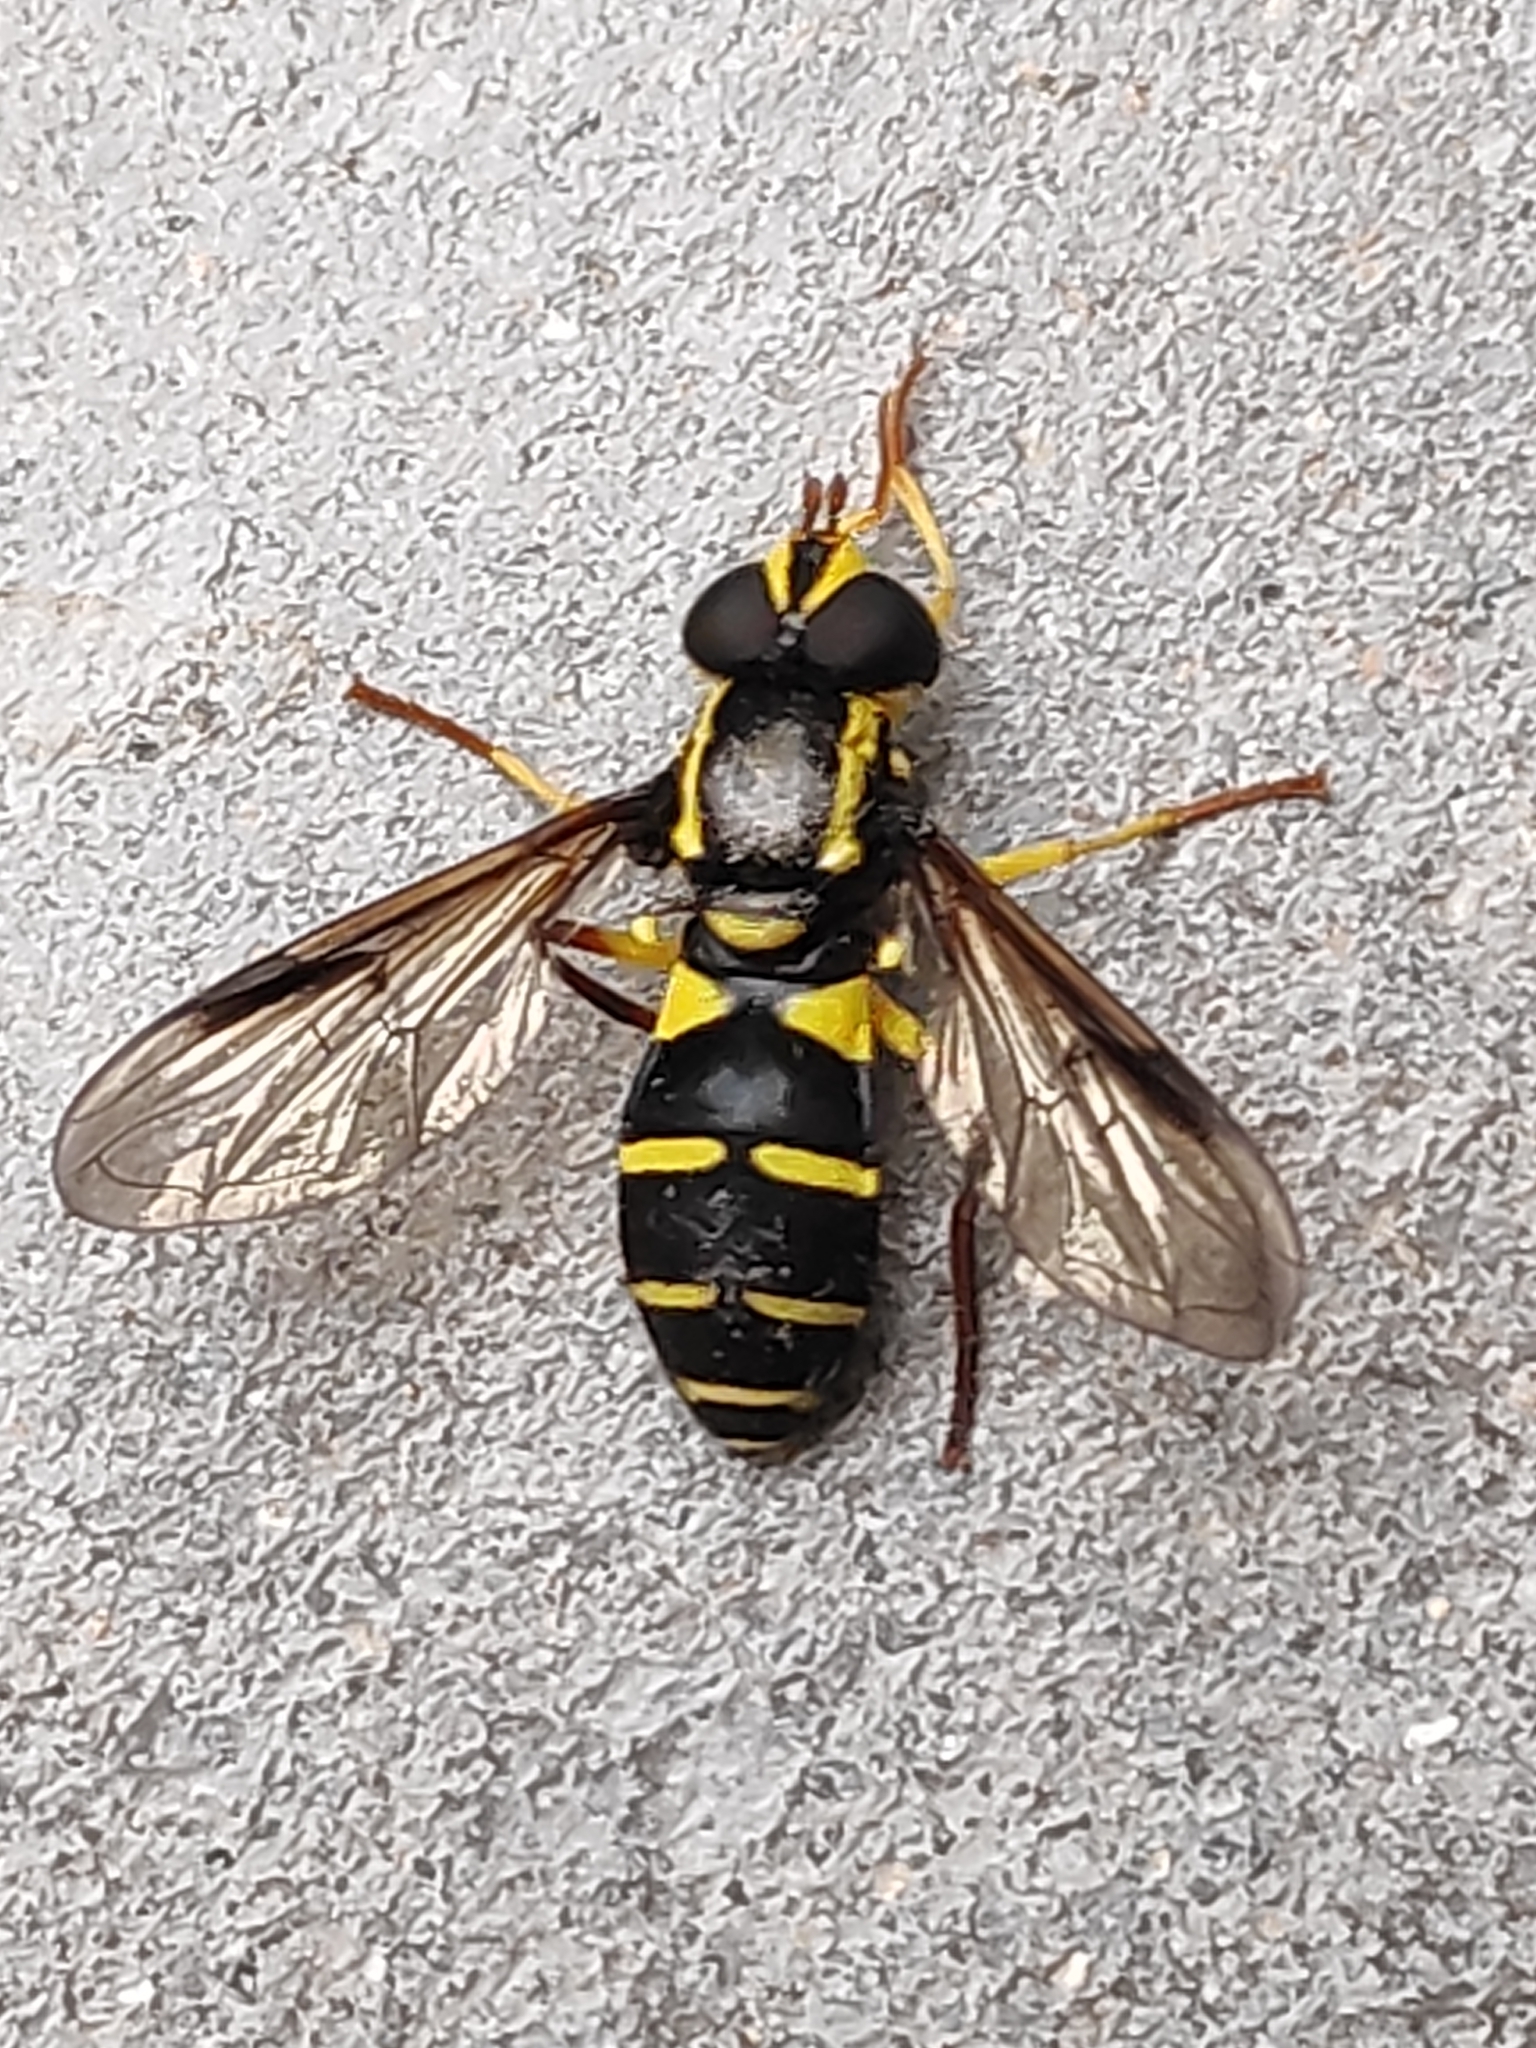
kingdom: Animalia
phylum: Arthropoda
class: Insecta
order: Diptera
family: Syrphidae
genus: Philhelius
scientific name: Philhelius pedissequum
